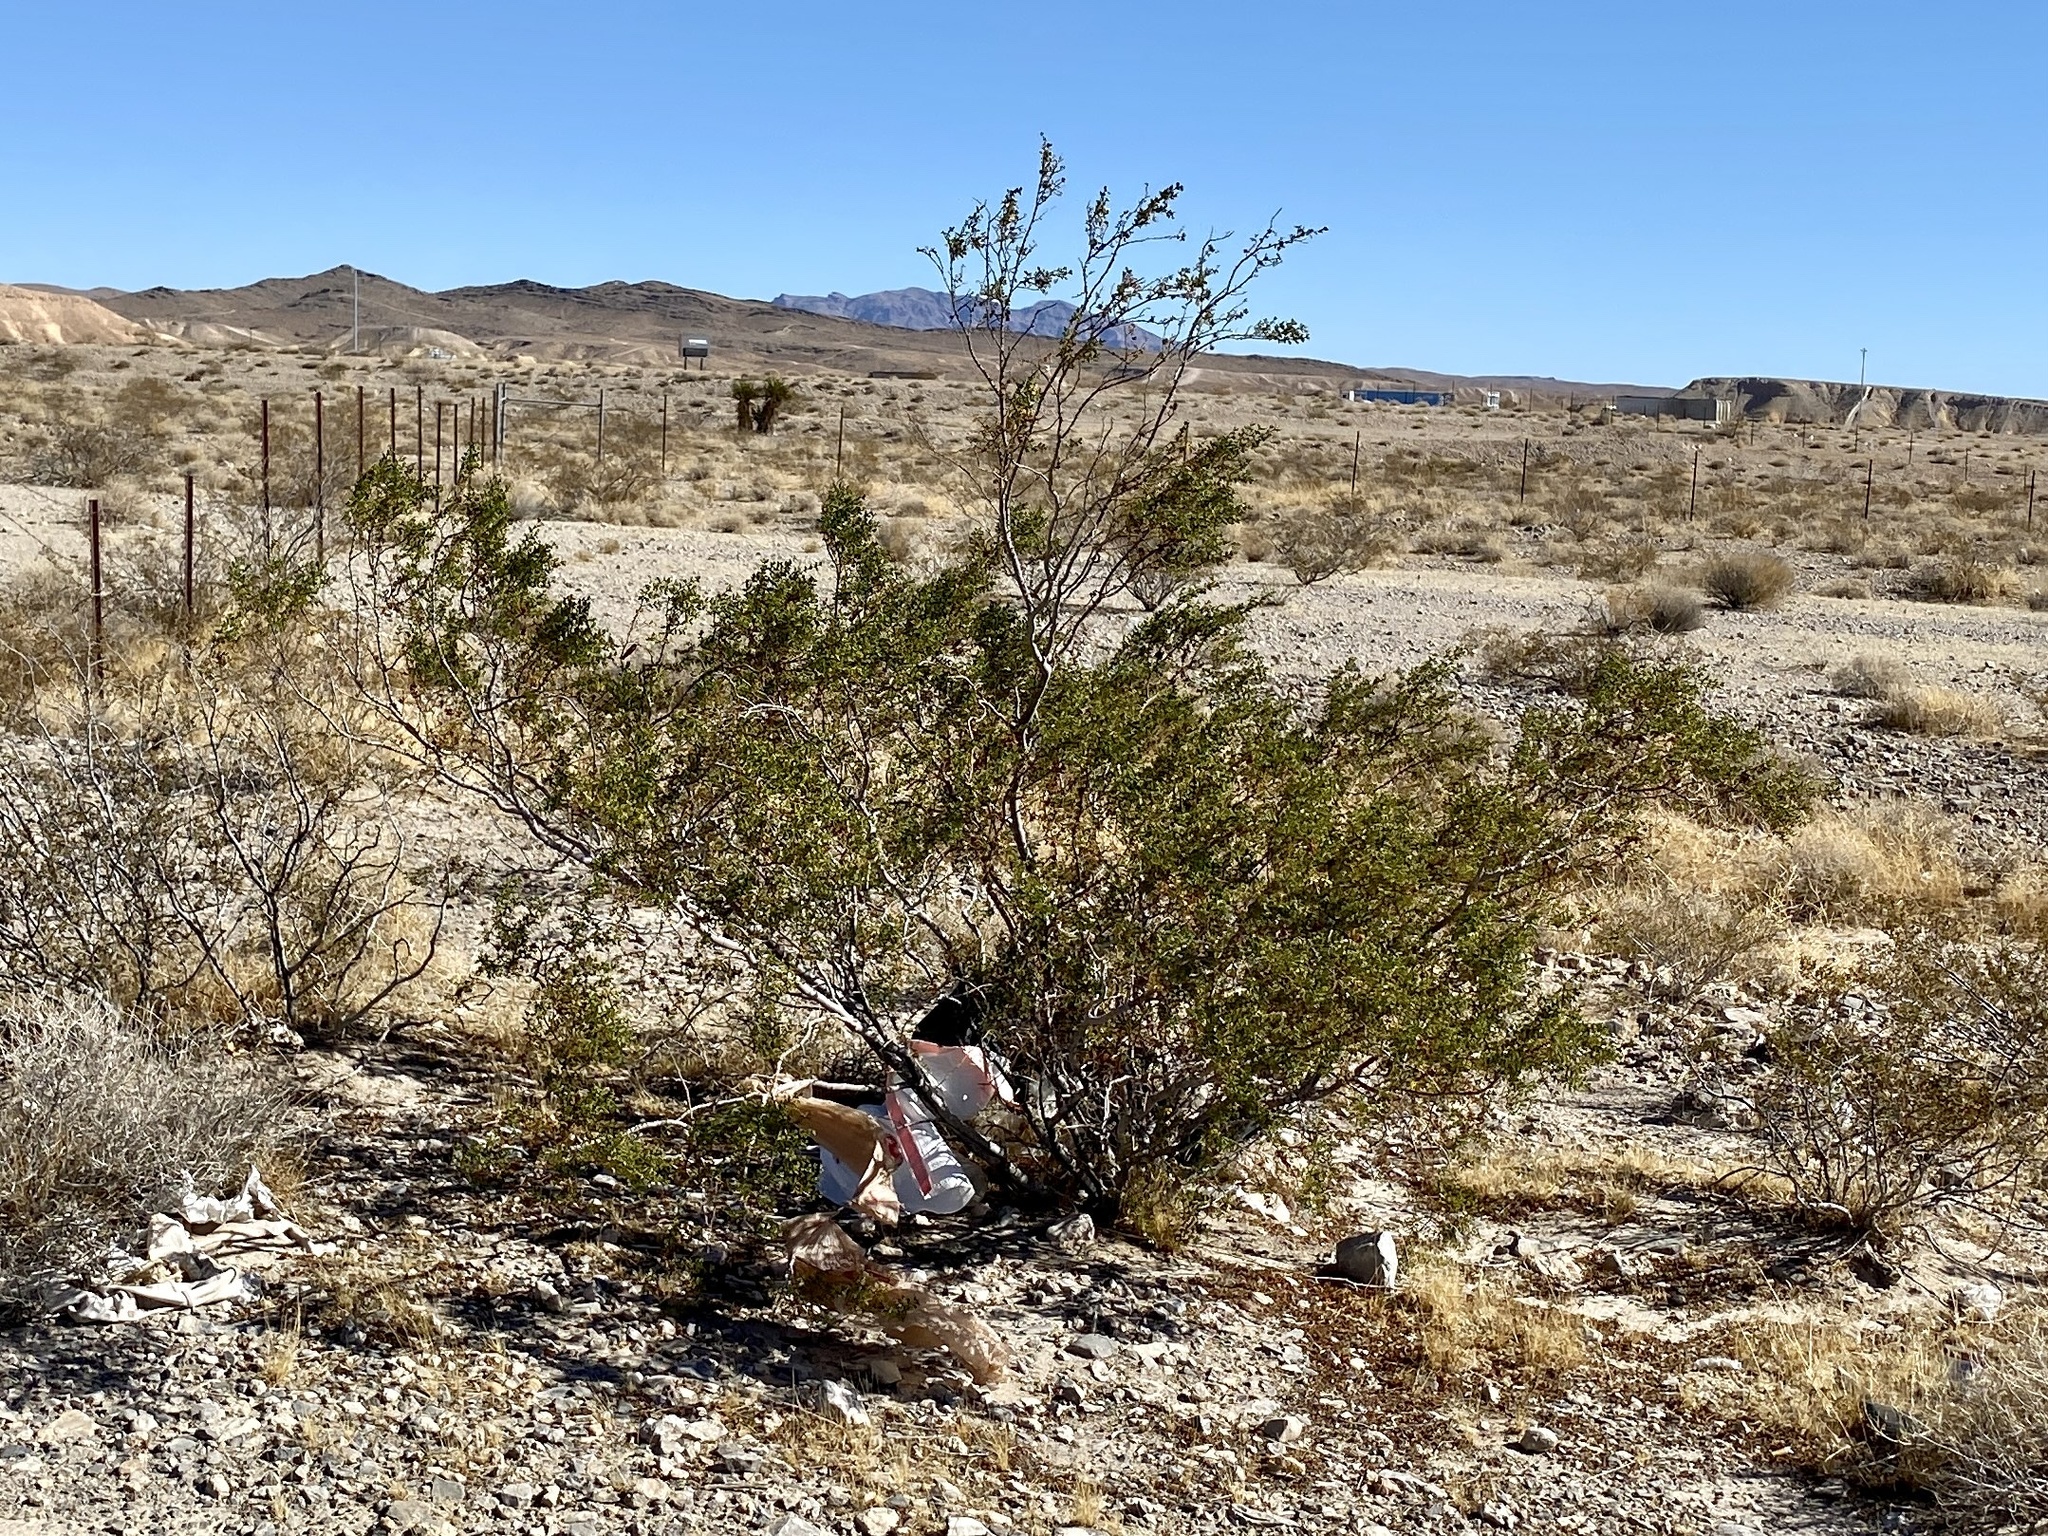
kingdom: Plantae
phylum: Tracheophyta
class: Magnoliopsida
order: Zygophyllales
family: Zygophyllaceae
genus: Larrea
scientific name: Larrea tridentata
